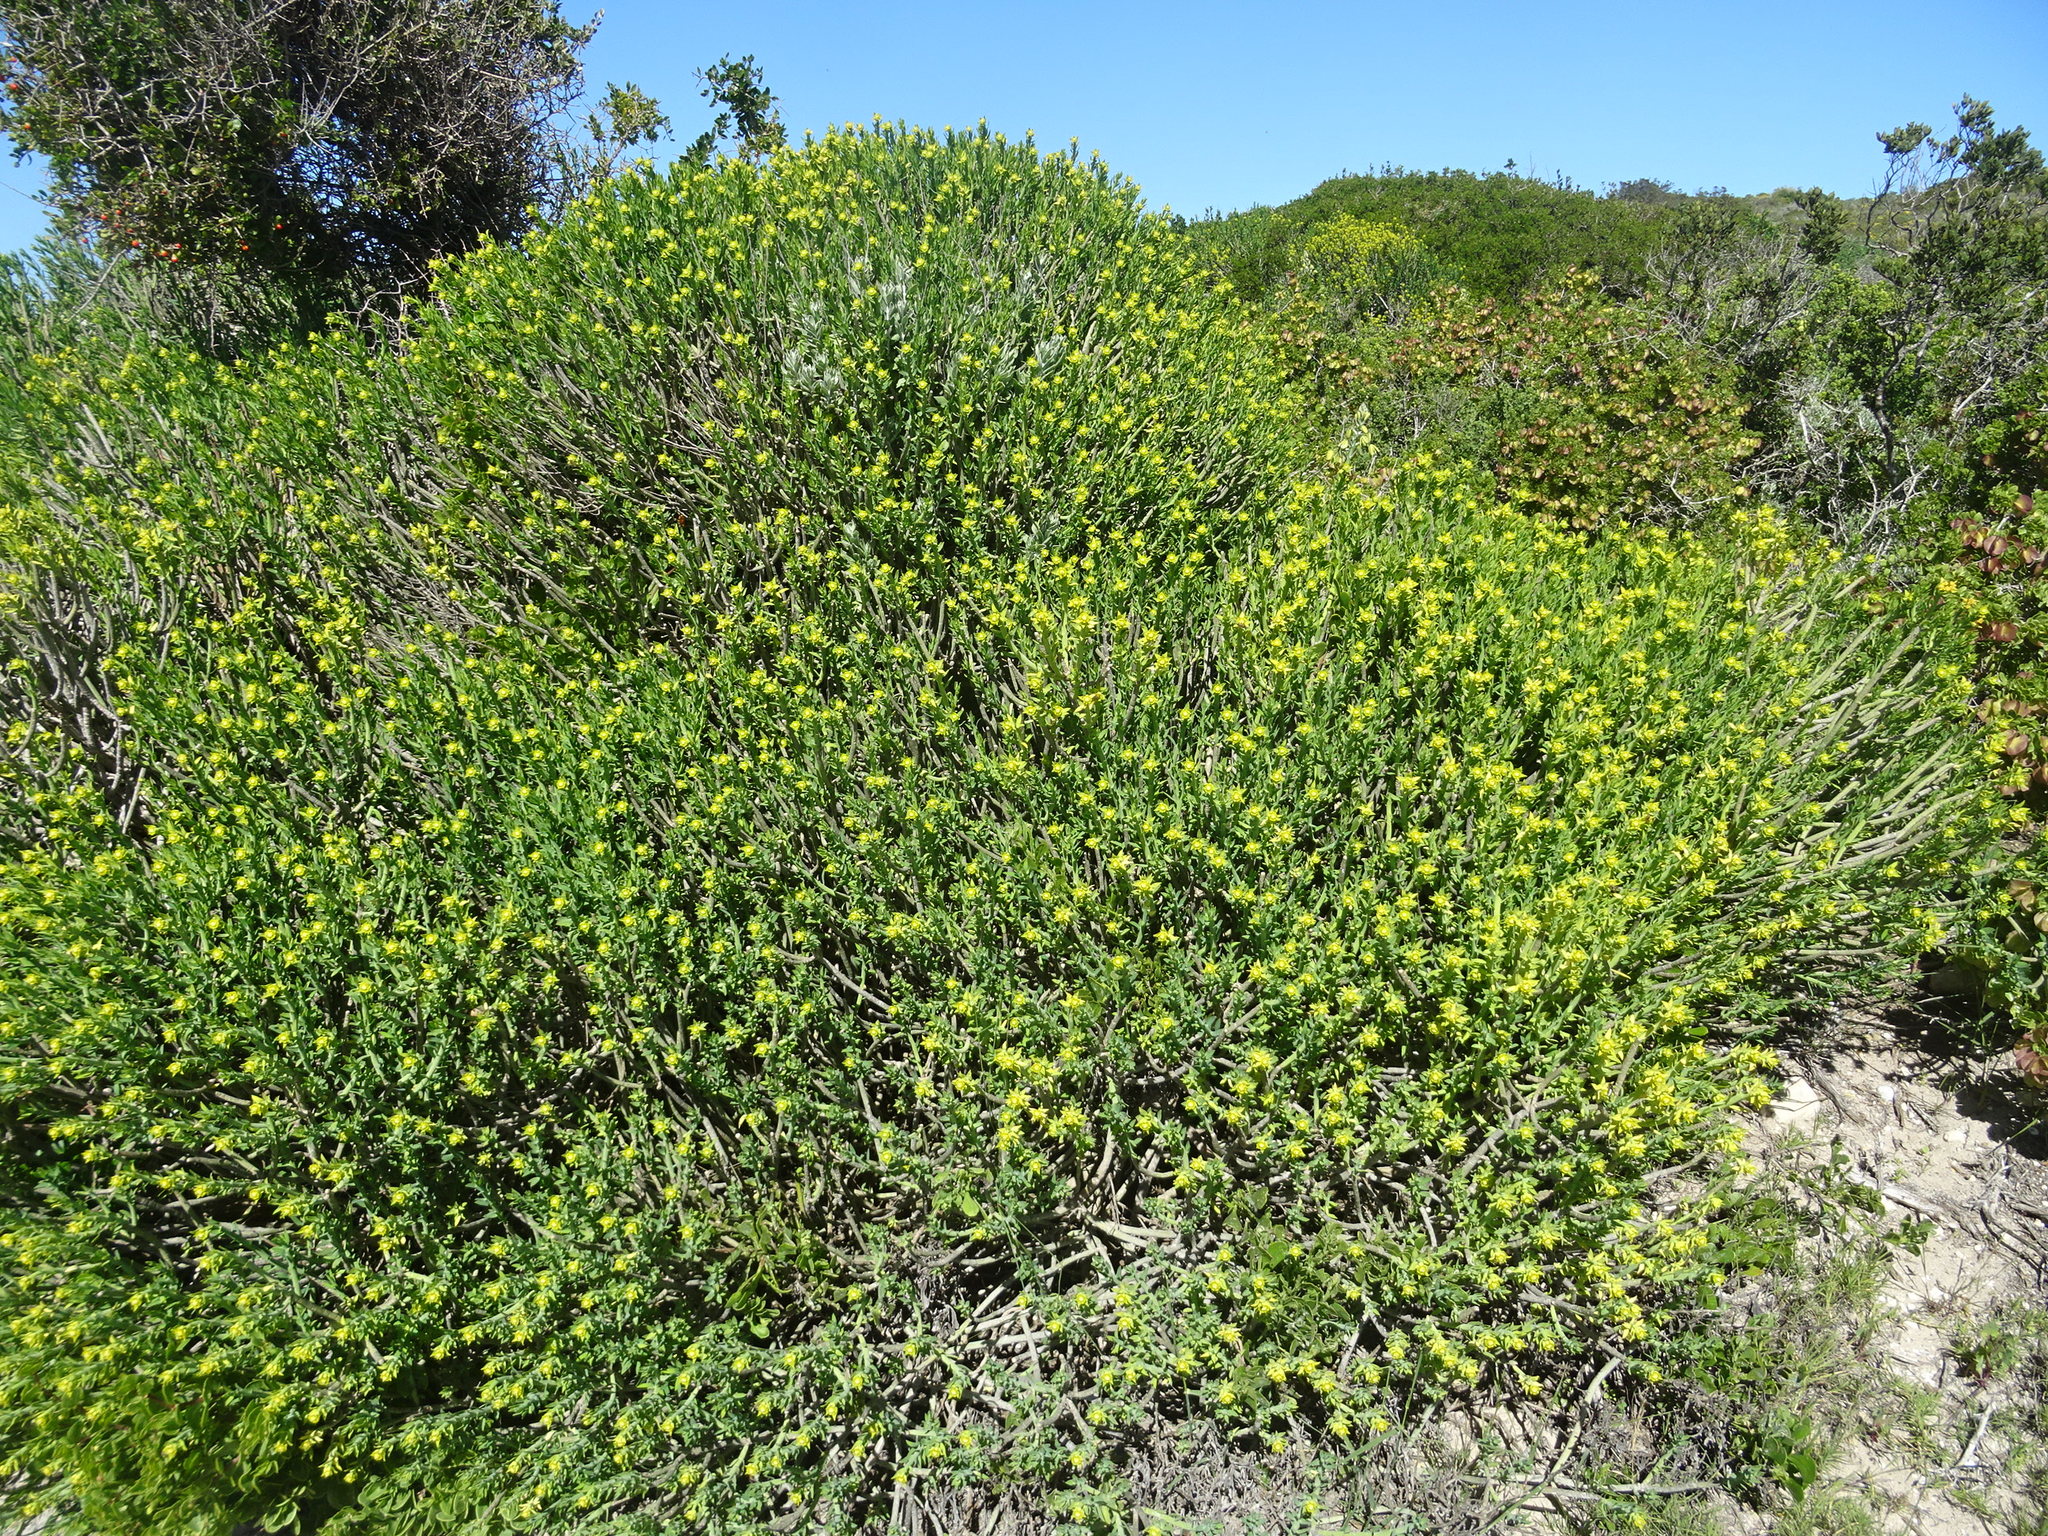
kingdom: Plantae
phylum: Tracheophyta
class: Magnoliopsida
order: Malpighiales
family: Euphorbiaceae
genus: Euphorbia
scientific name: Euphorbia mauritanica
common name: Jackal's-food
